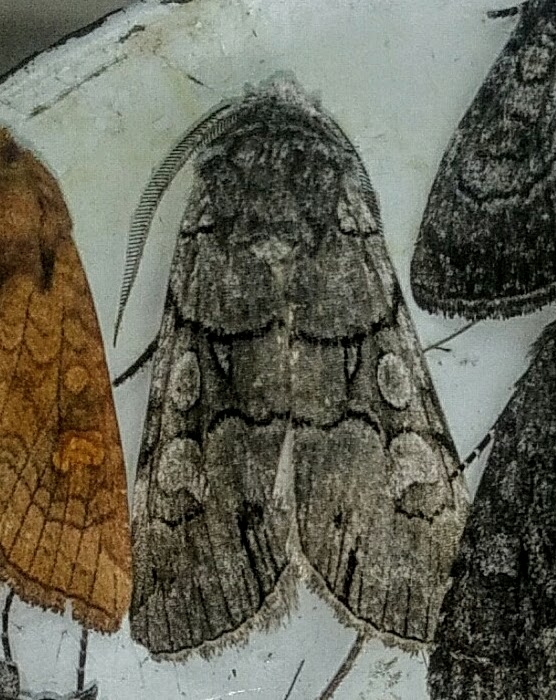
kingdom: Animalia
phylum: Arthropoda
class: Insecta
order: Lepidoptera
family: Noctuidae
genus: Sympistis
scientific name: Sympistis chionanthi
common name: Fringe-tree sallow
